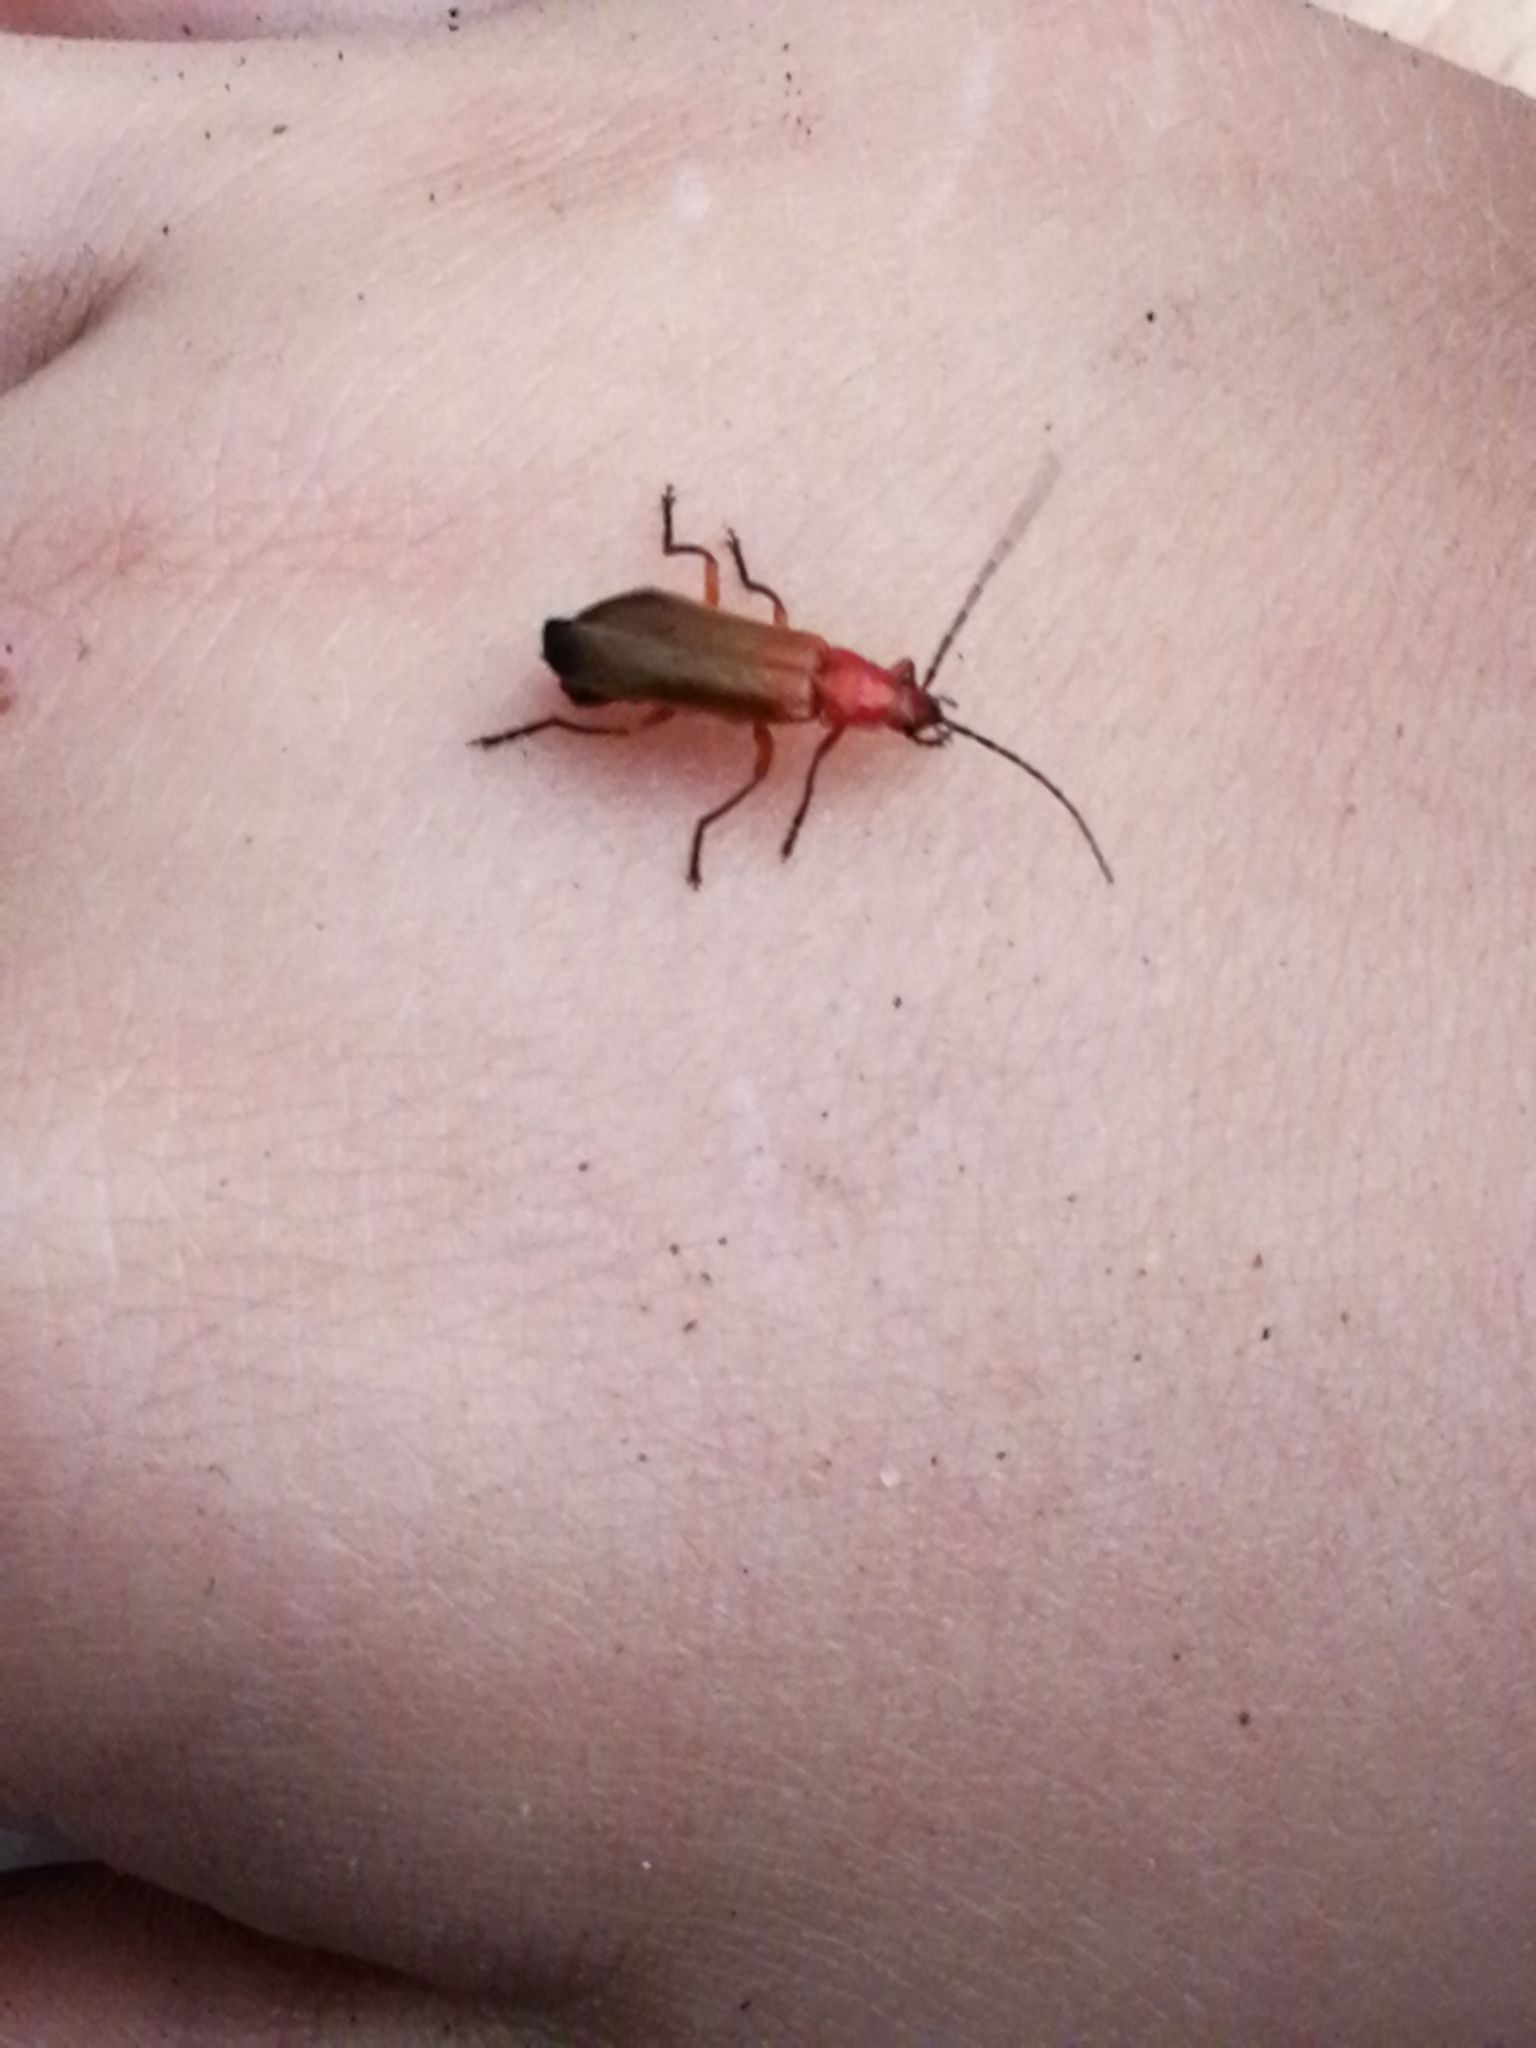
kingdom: Animalia
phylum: Arthropoda
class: Insecta
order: Coleoptera
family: Cantharidae
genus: Rhagonycha
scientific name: Rhagonycha fulva
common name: Common red soldier beetle
